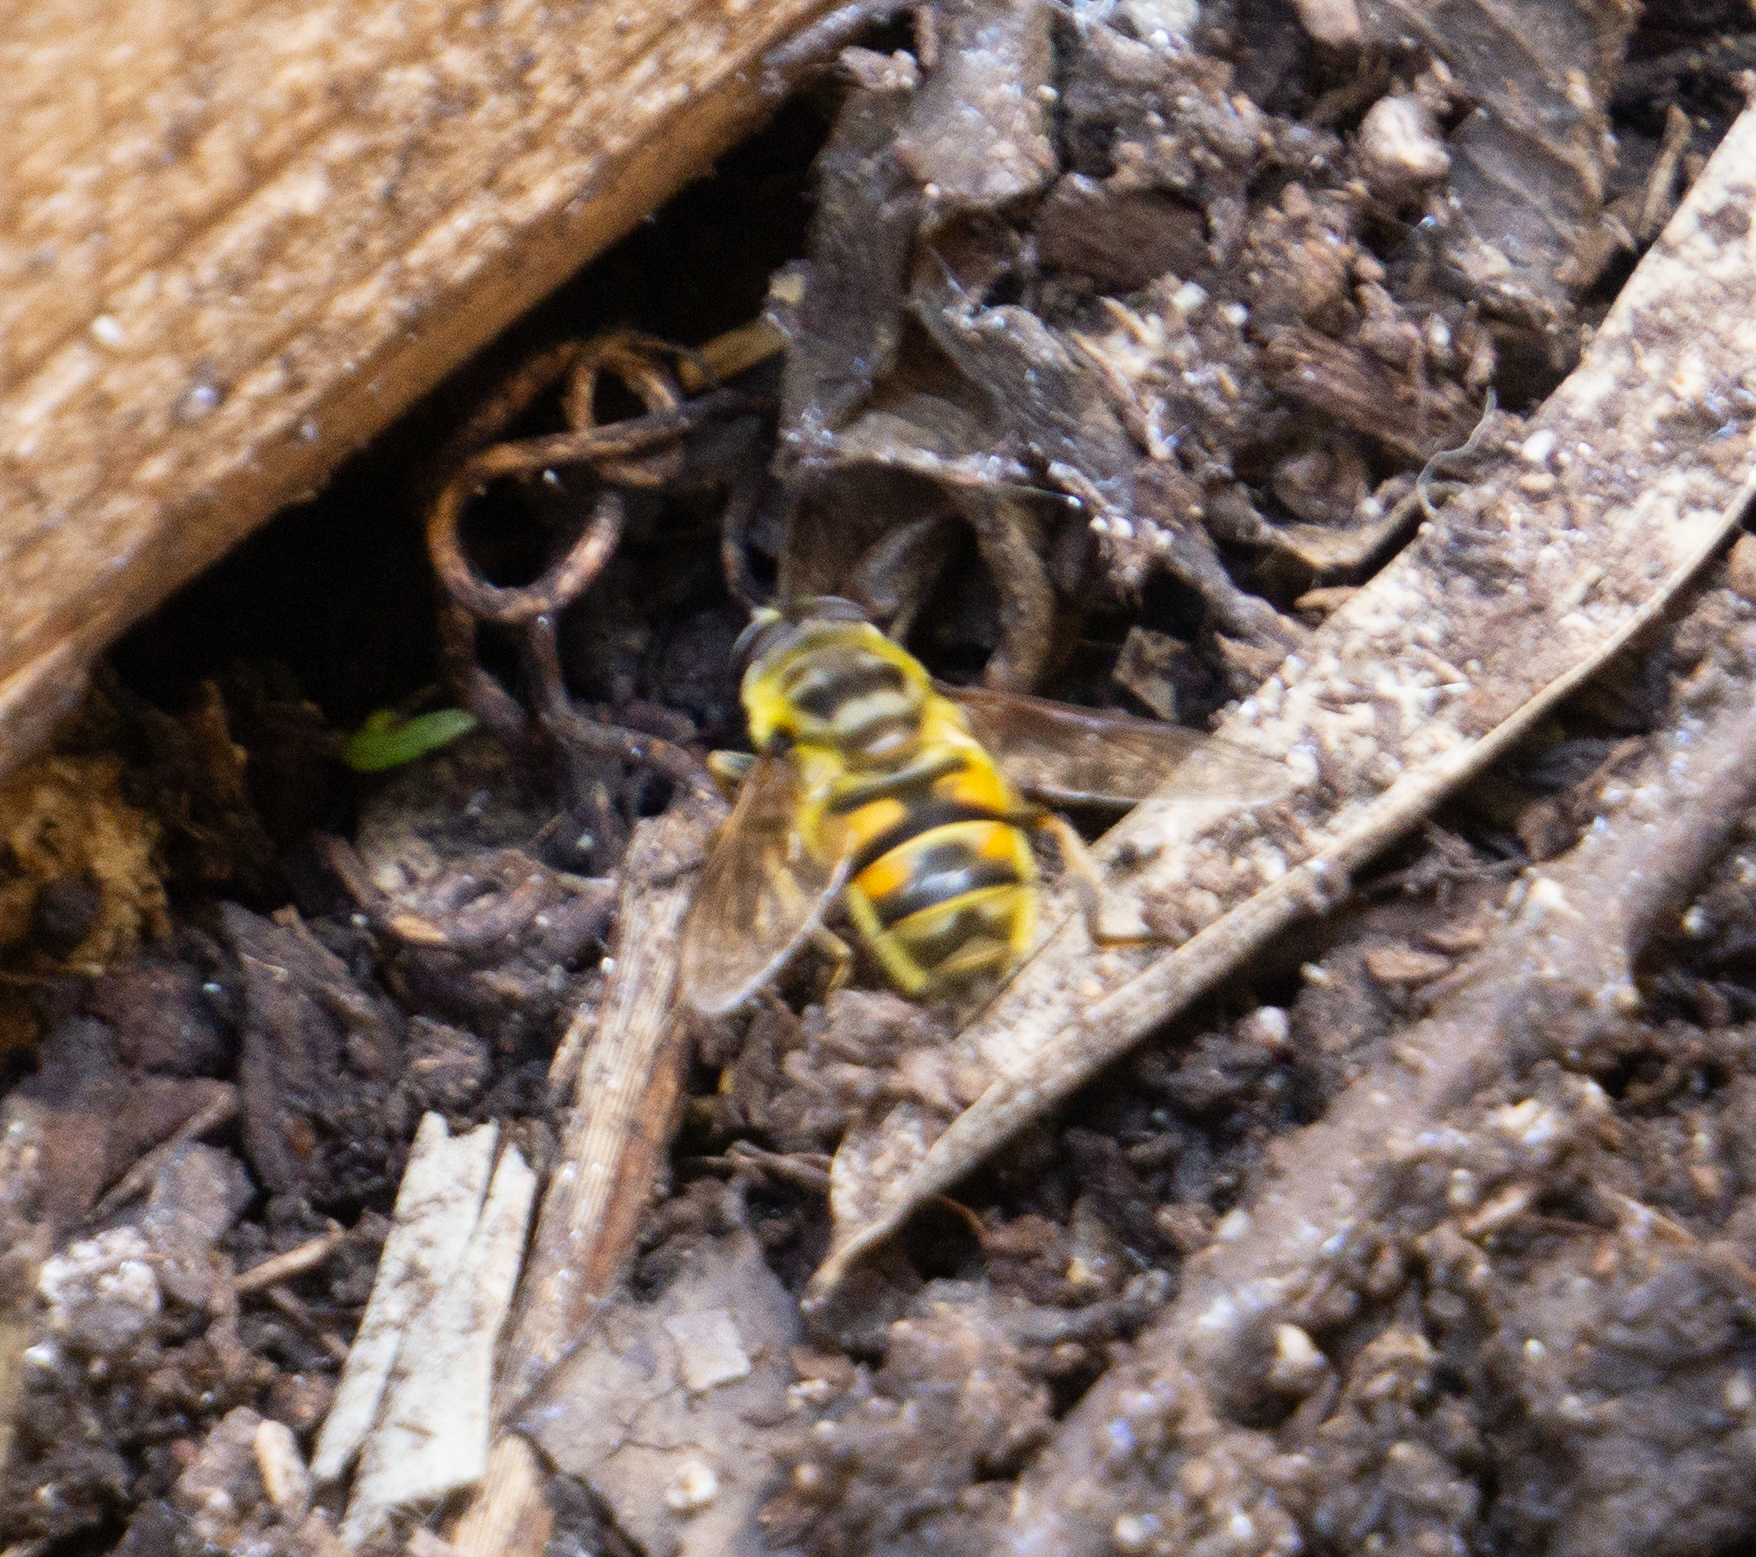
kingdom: Animalia
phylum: Arthropoda
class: Insecta
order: Diptera
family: Syrphidae
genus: Myathropa
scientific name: Myathropa florea
